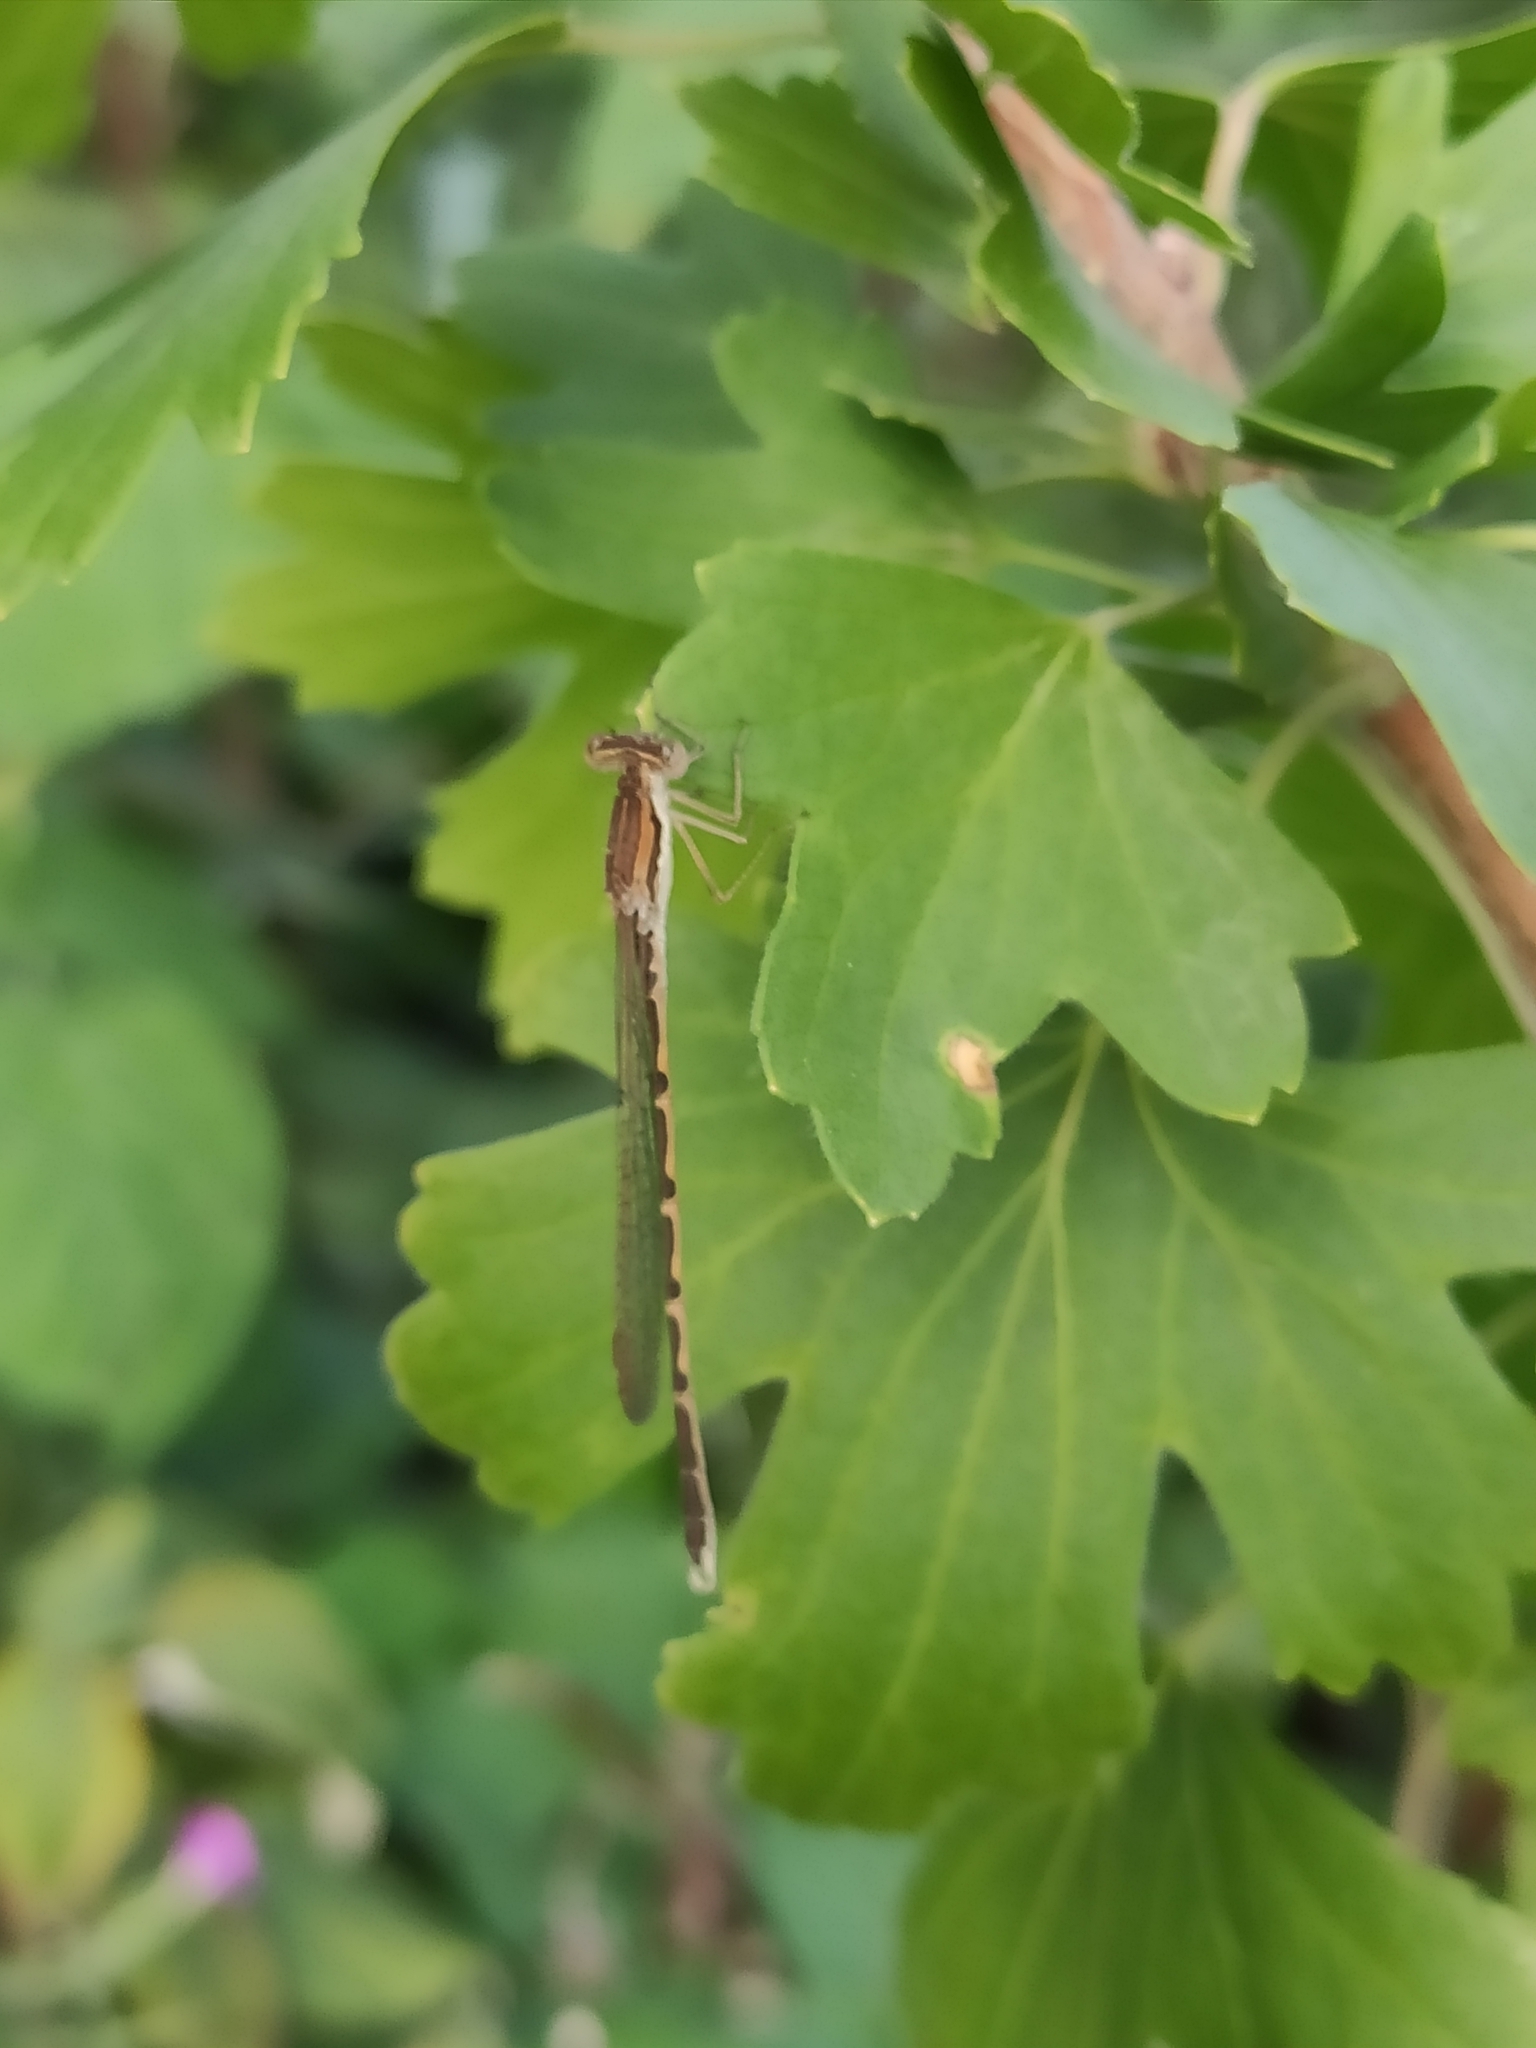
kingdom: Animalia
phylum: Arthropoda
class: Insecta
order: Odonata
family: Lestidae
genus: Sympecma
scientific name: Sympecma fusca
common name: Common winter damsel
